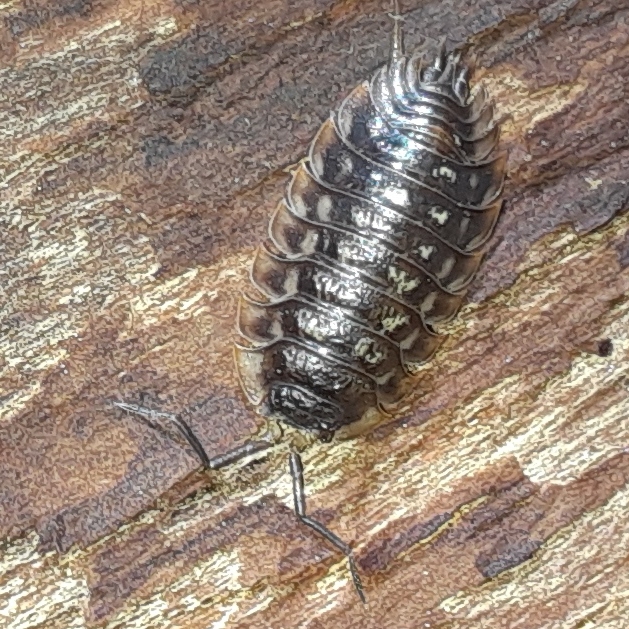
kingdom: Animalia
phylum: Arthropoda
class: Malacostraca
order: Isopoda
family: Oniscidae
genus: Oniscus
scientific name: Oniscus asellus
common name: Common shiny woodlouse
